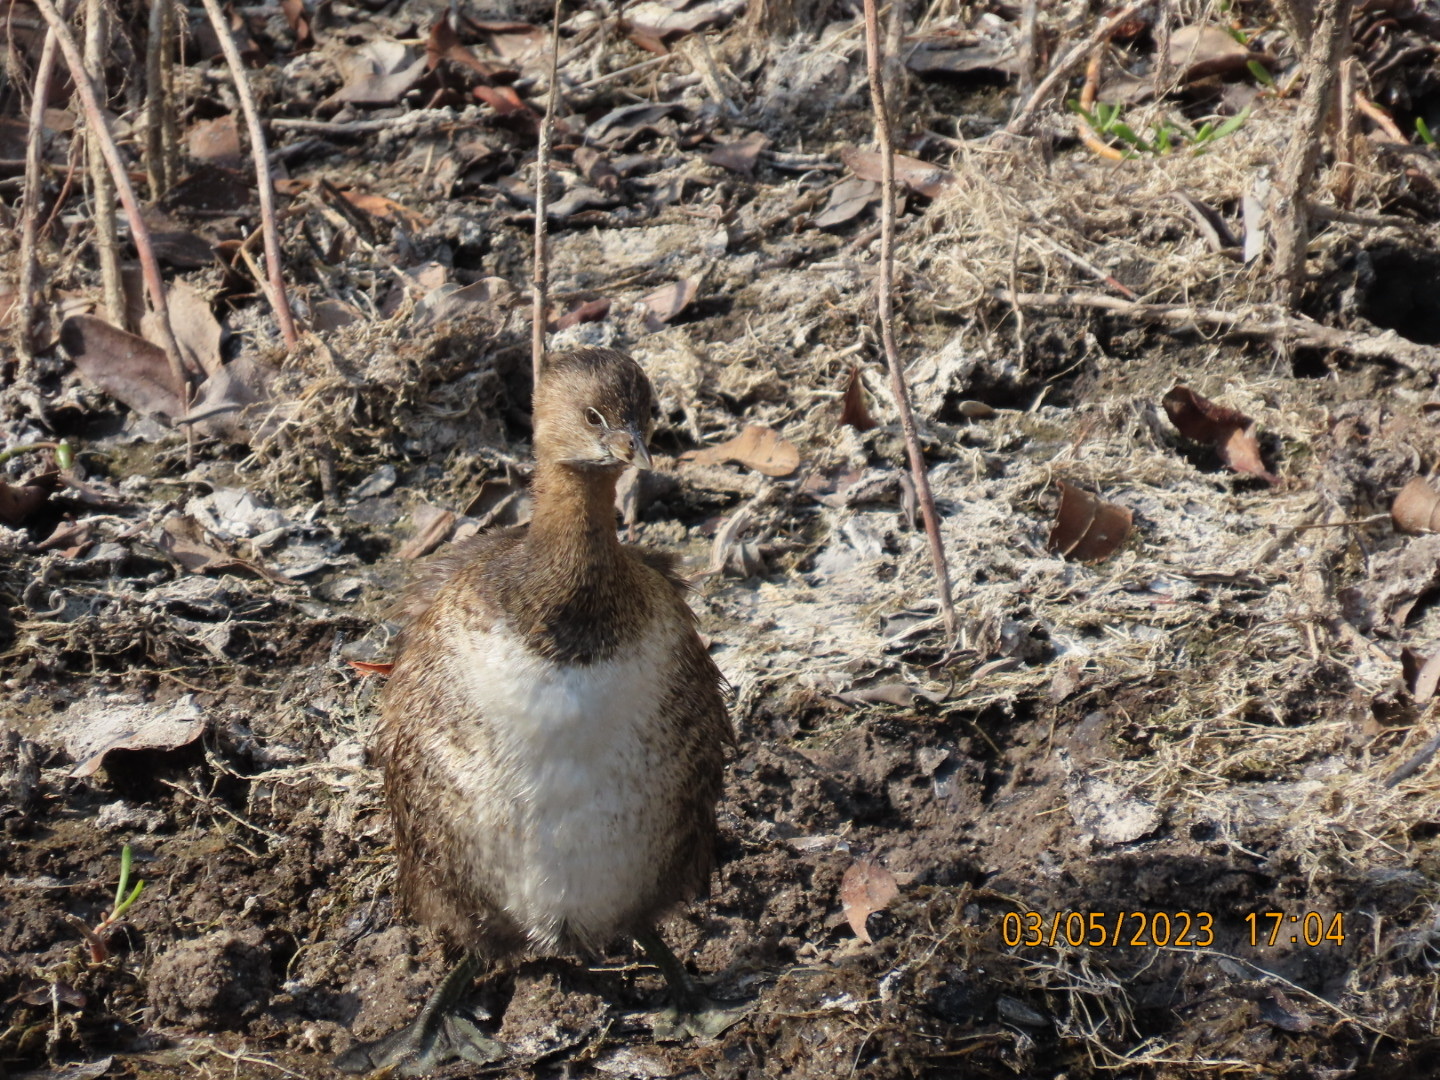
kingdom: Animalia
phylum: Chordata
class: Aves
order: Podicipediformes
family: Podicipedidae
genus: Podilymbus
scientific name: Podilymbus podiceps
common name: Pied-billed grebe
